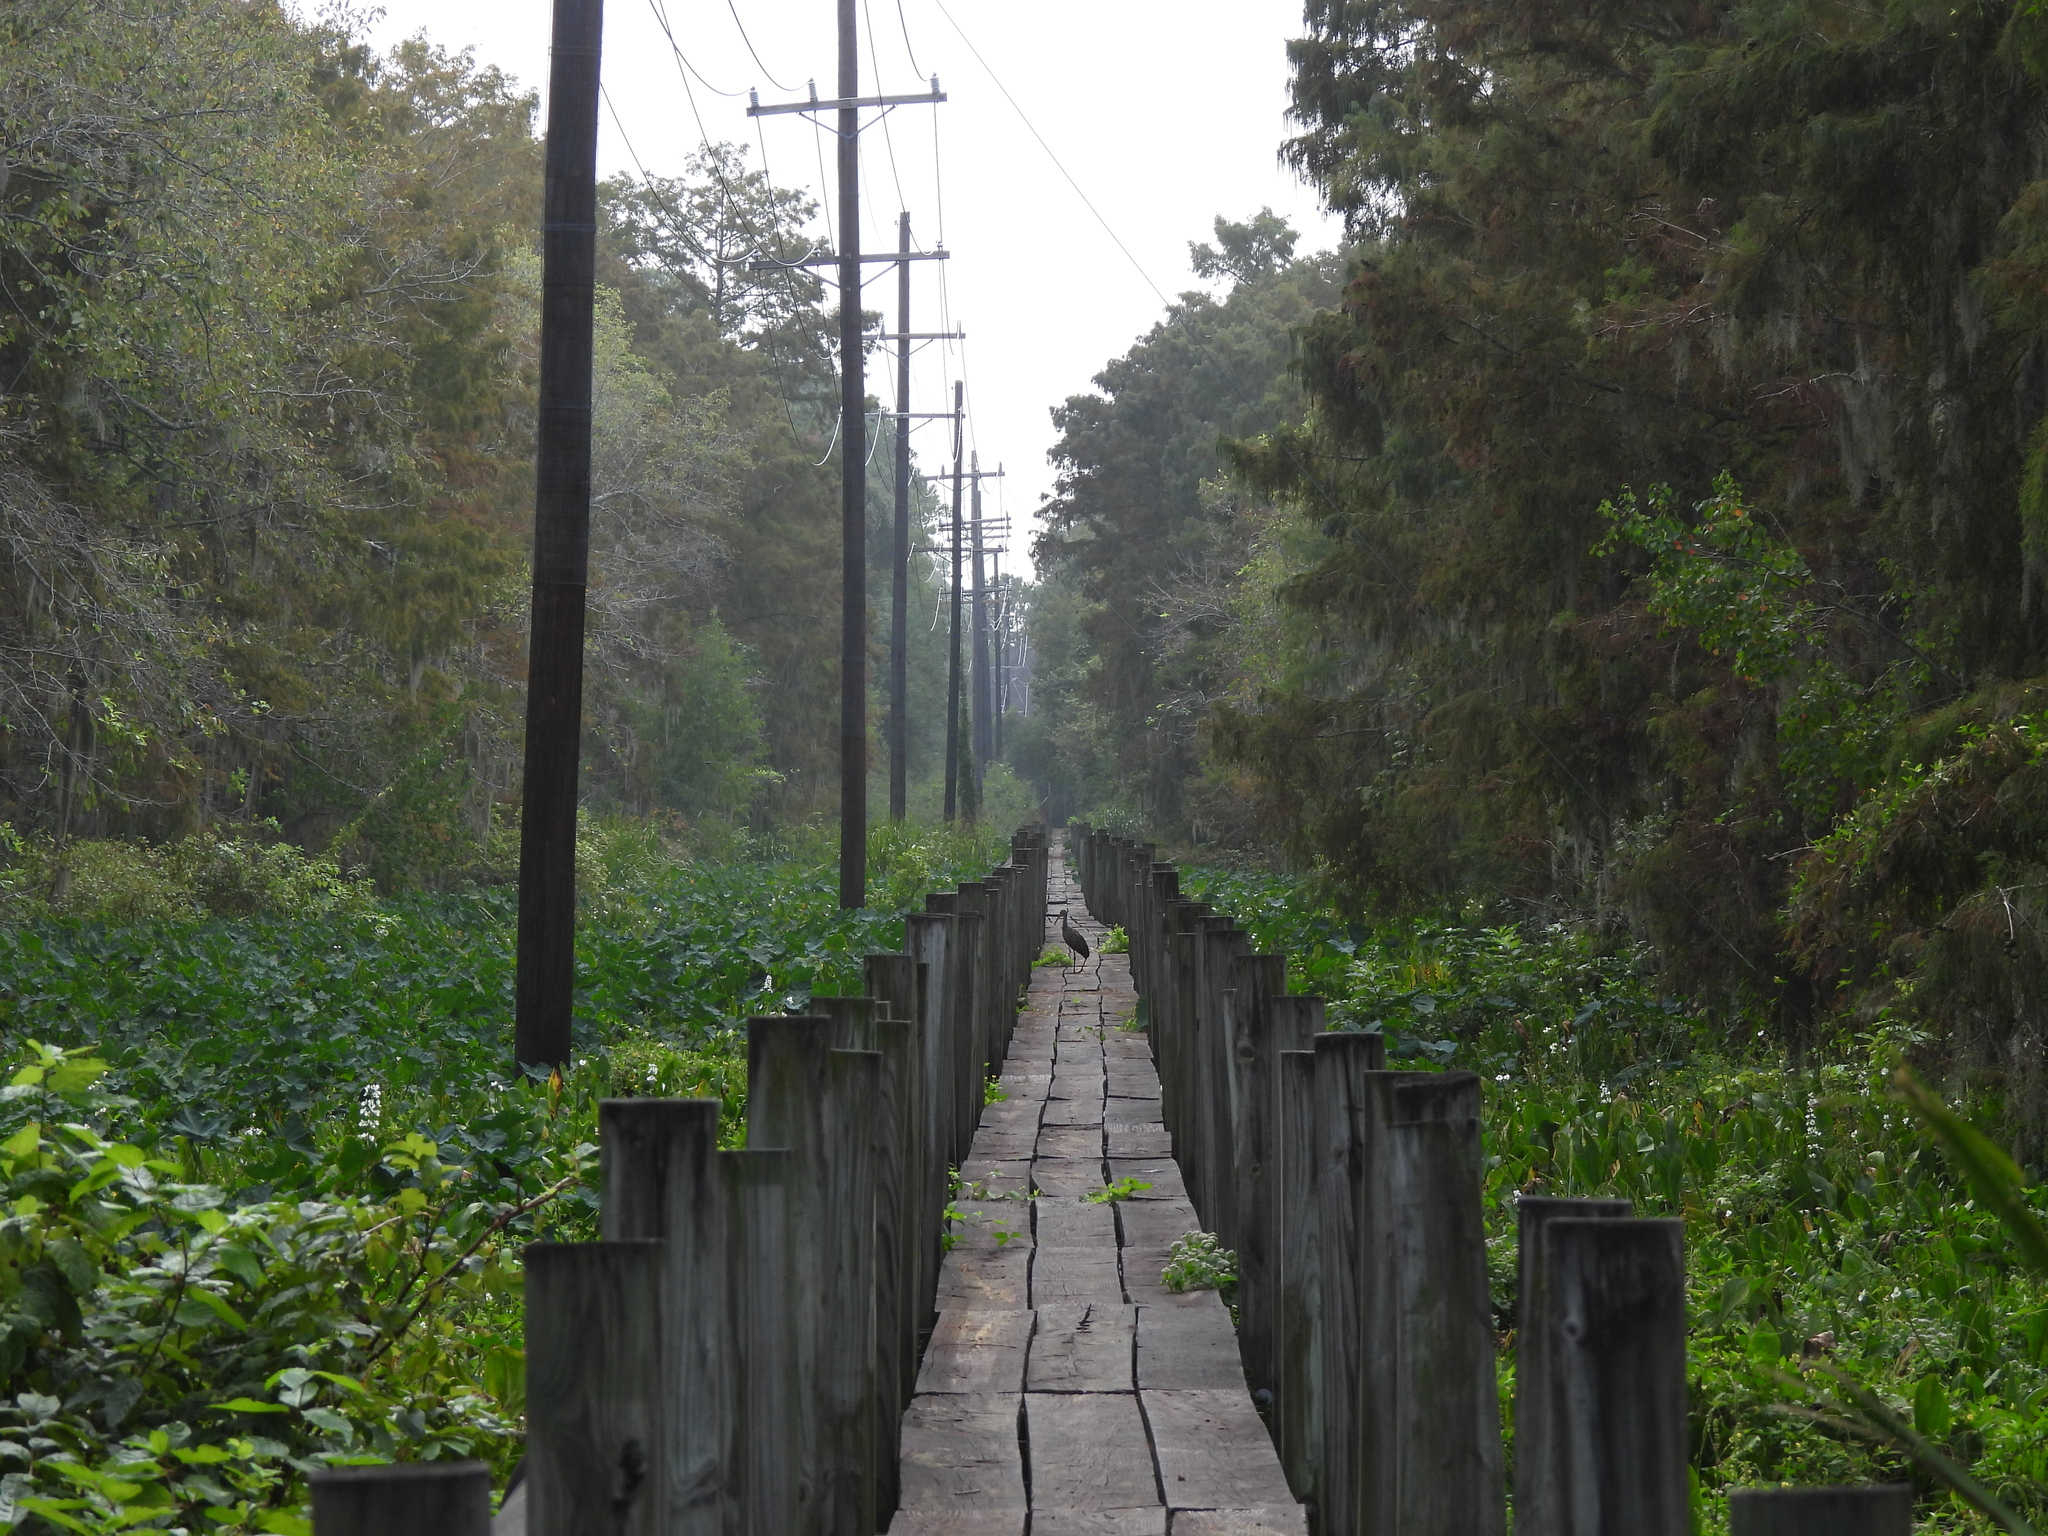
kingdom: Animalia
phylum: Chordata
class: Aves
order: Gruiformes
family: Aramidae
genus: Aramus
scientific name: Aramus guarauna
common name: Limpkin
